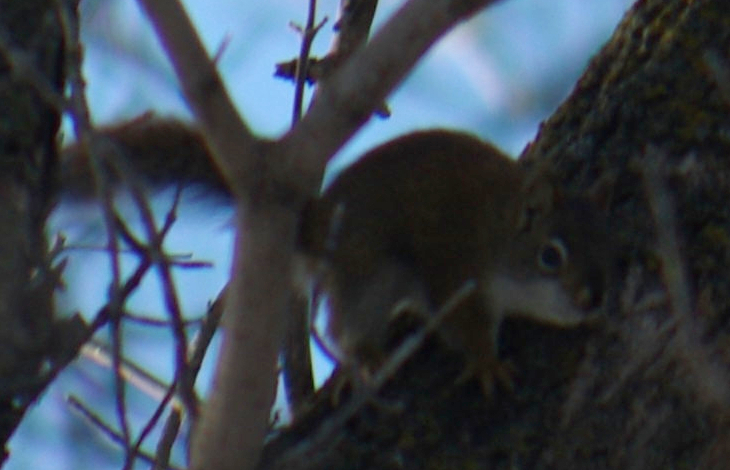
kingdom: Animalia
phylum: Chordata
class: Mammalia
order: Rodentia
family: Sciuridae
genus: Tamiasciurus
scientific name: Tamiasciurus hudsonicus
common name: Red squirrel
